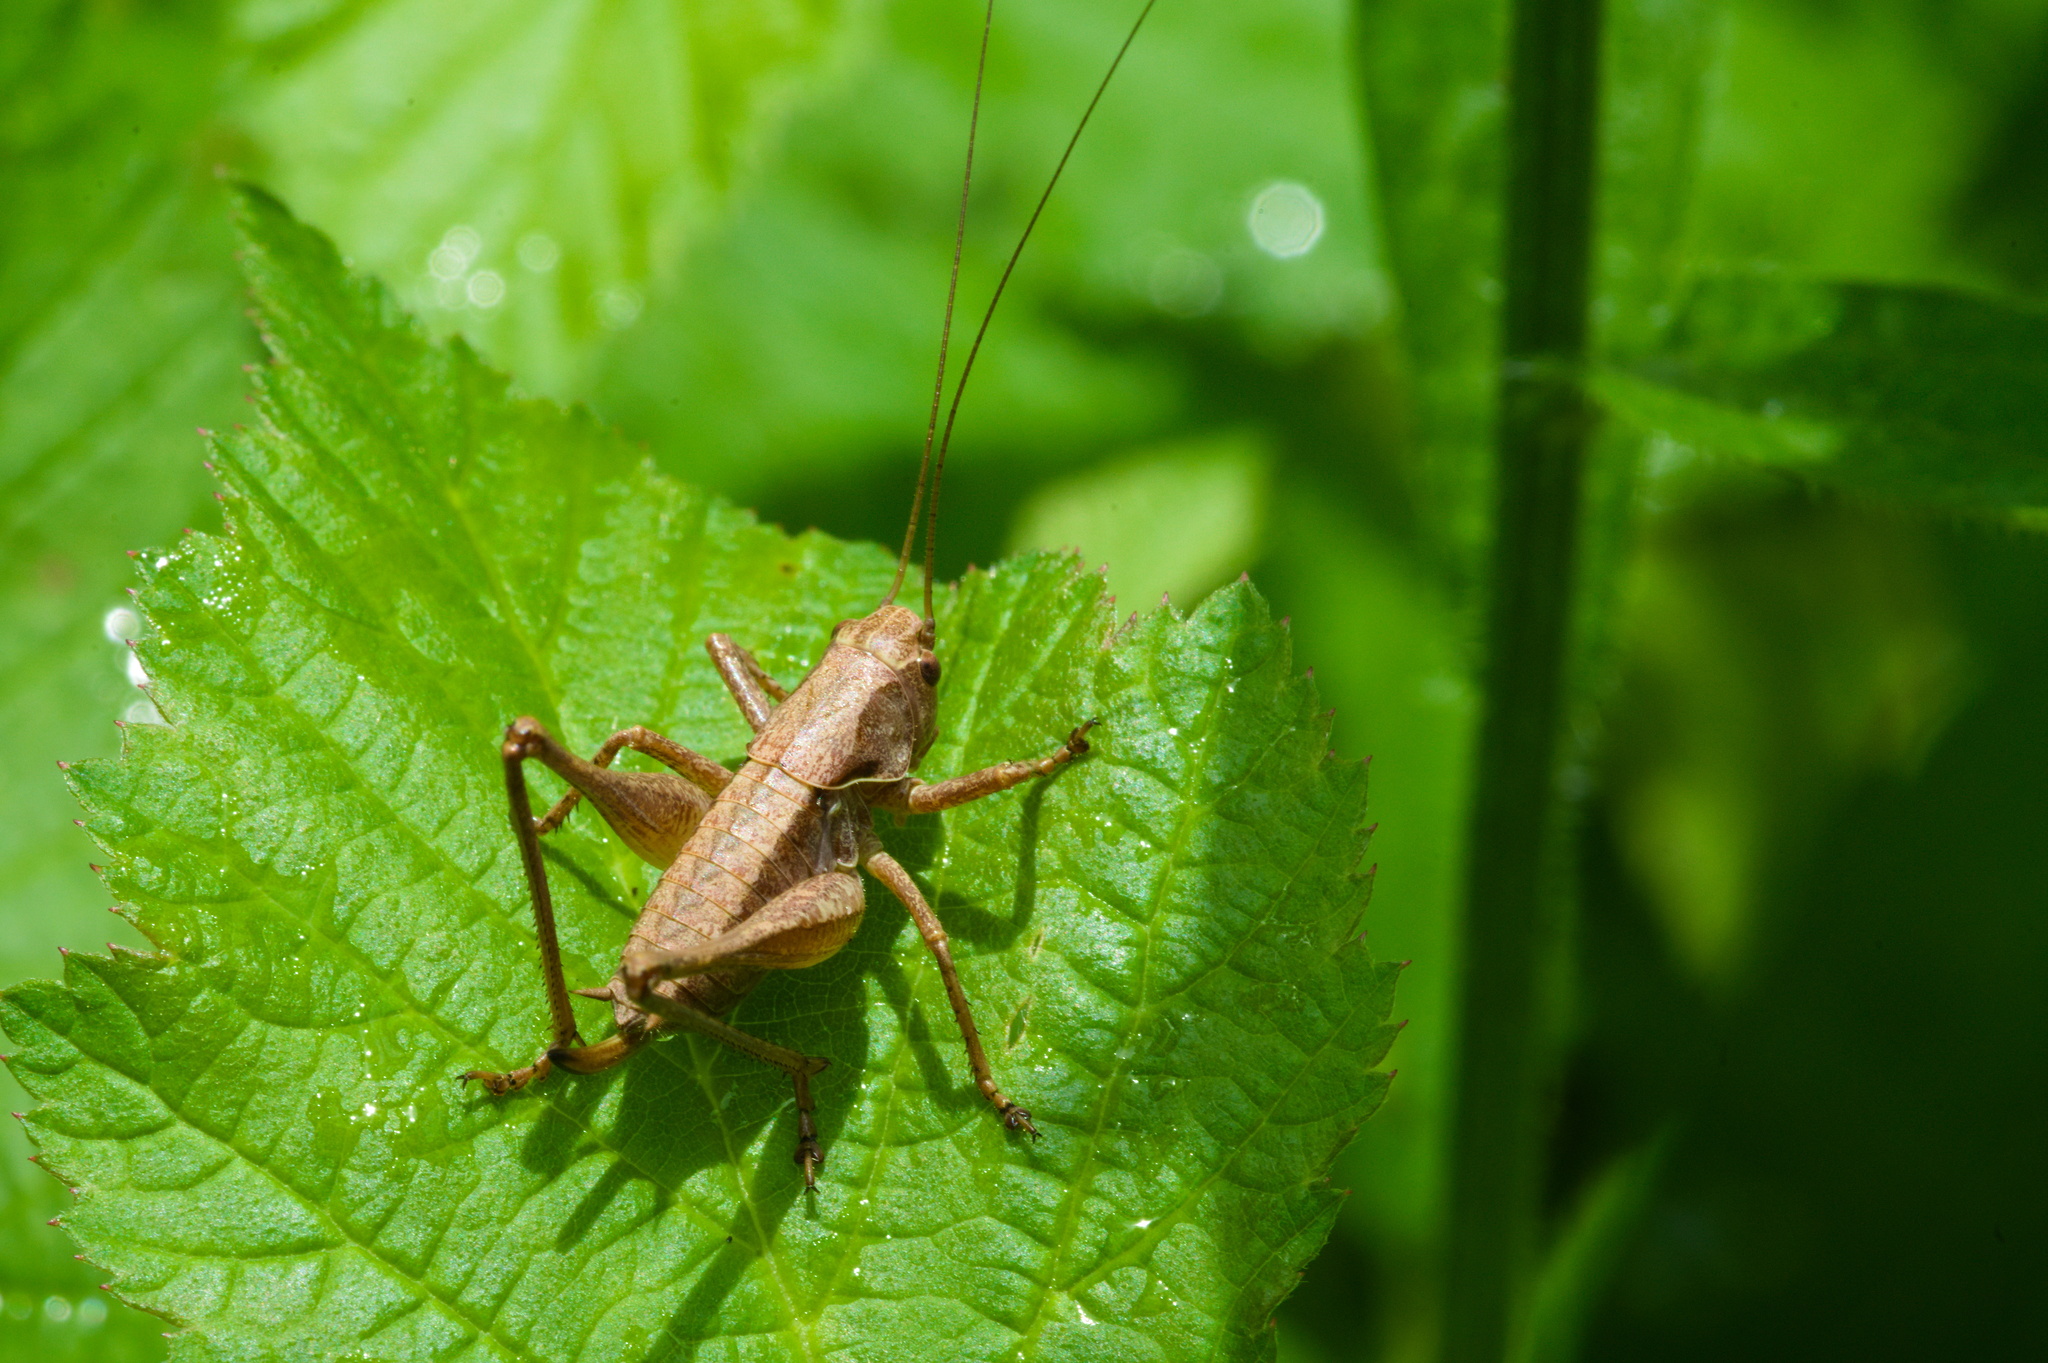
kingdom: Animalia
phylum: Arthropoda
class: Insecta
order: Orthoptera
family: Tettigoniidae
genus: Pholidoptera
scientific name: Pholidoptera griseoaptera
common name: Dark bush-cricket
